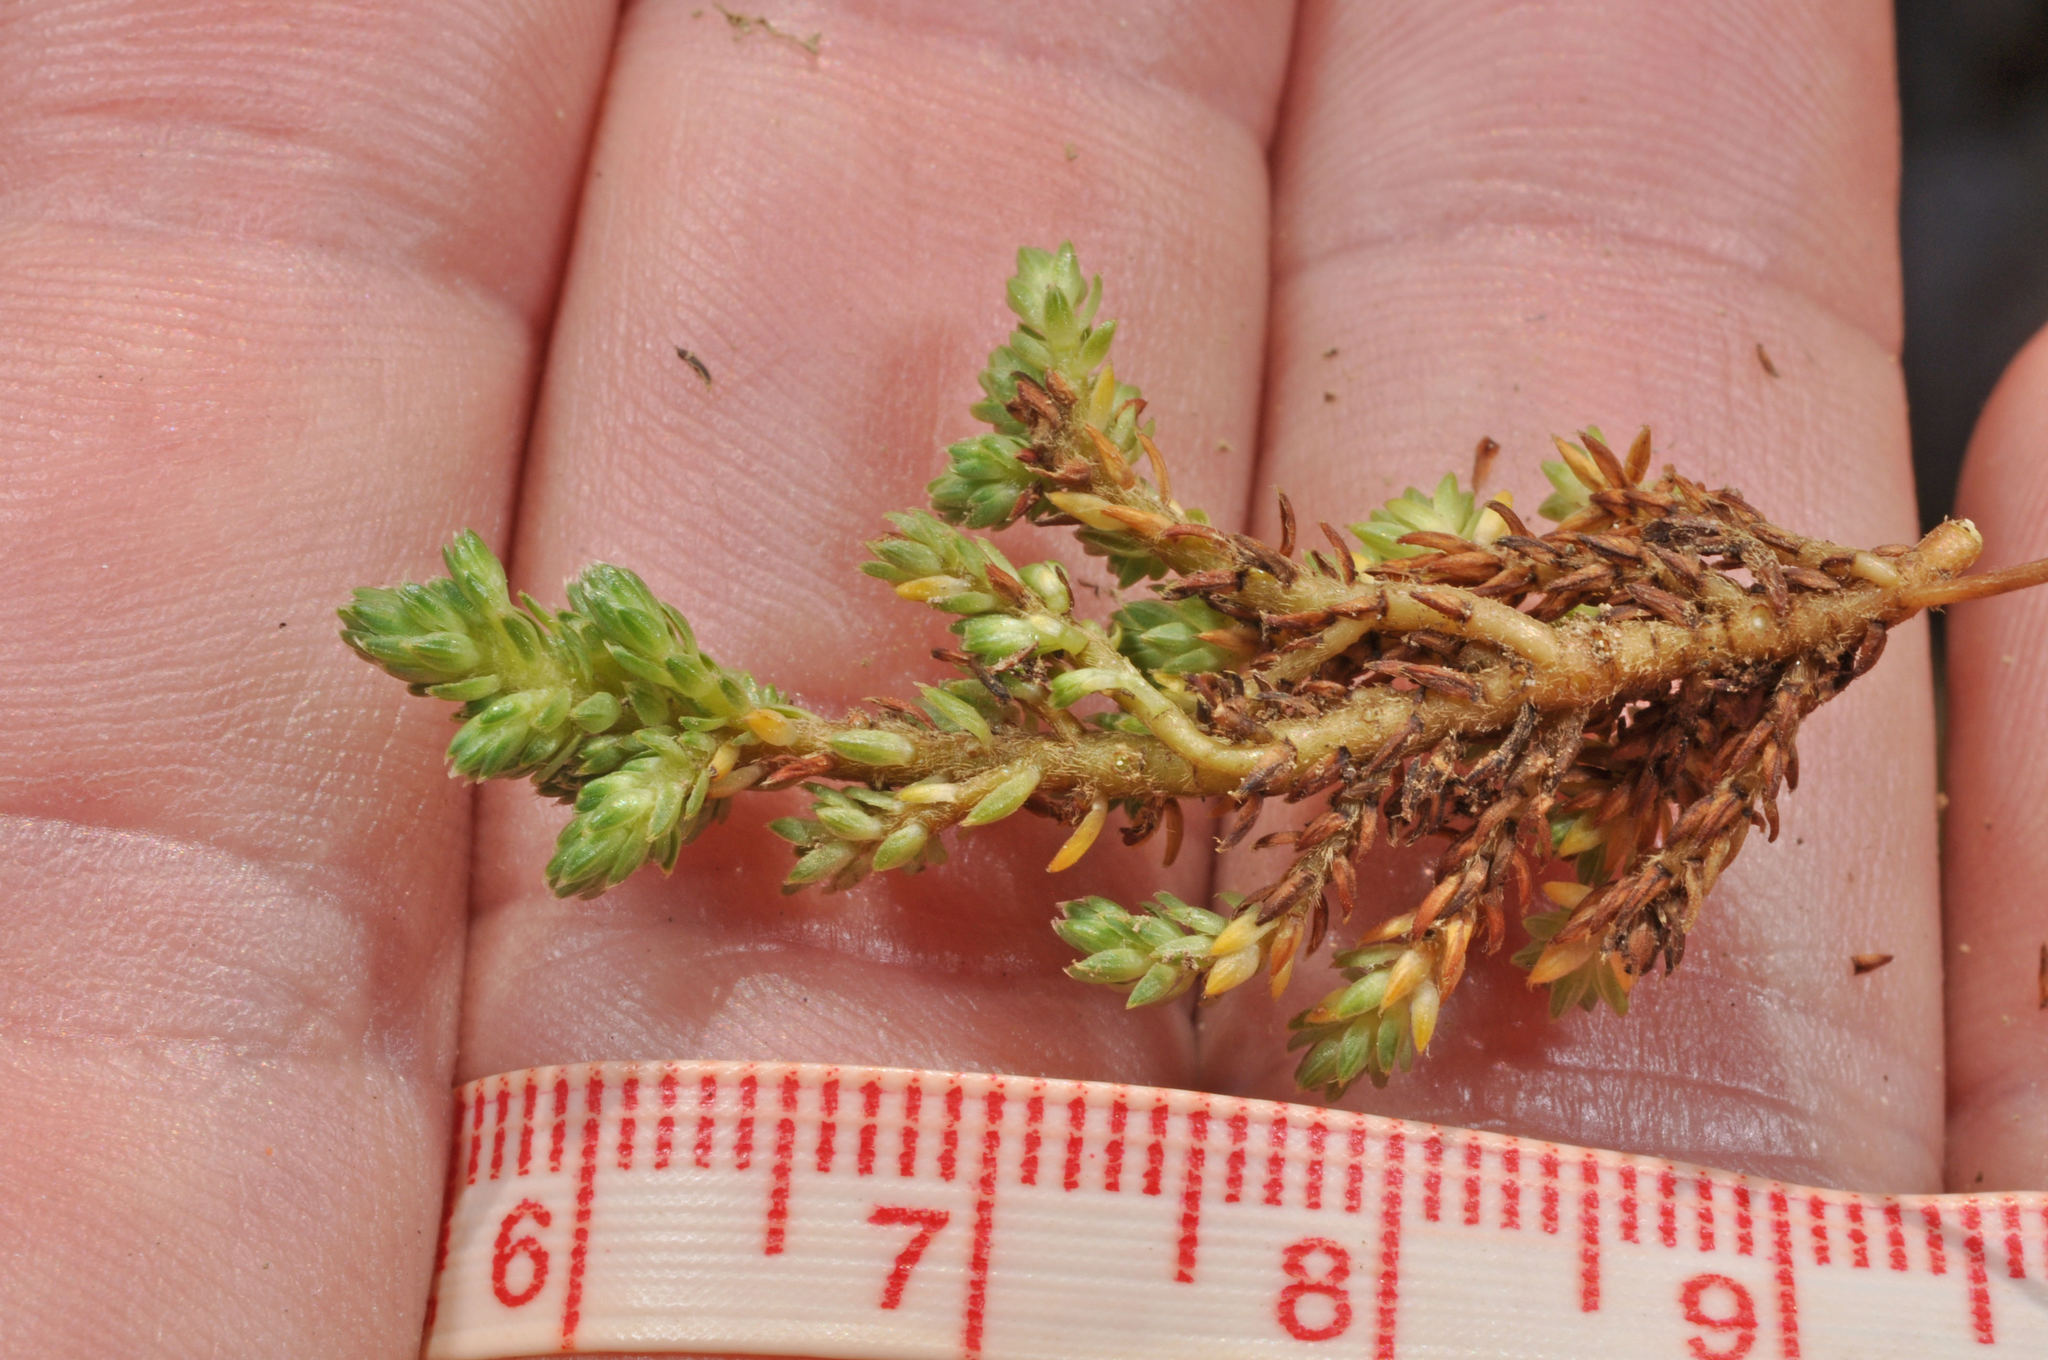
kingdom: Plantae
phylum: Tracheophyta
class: Magnoliopsida
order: Malvales
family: Thymelaeaceae
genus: Kelleria
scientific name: Kelleria croizatii
